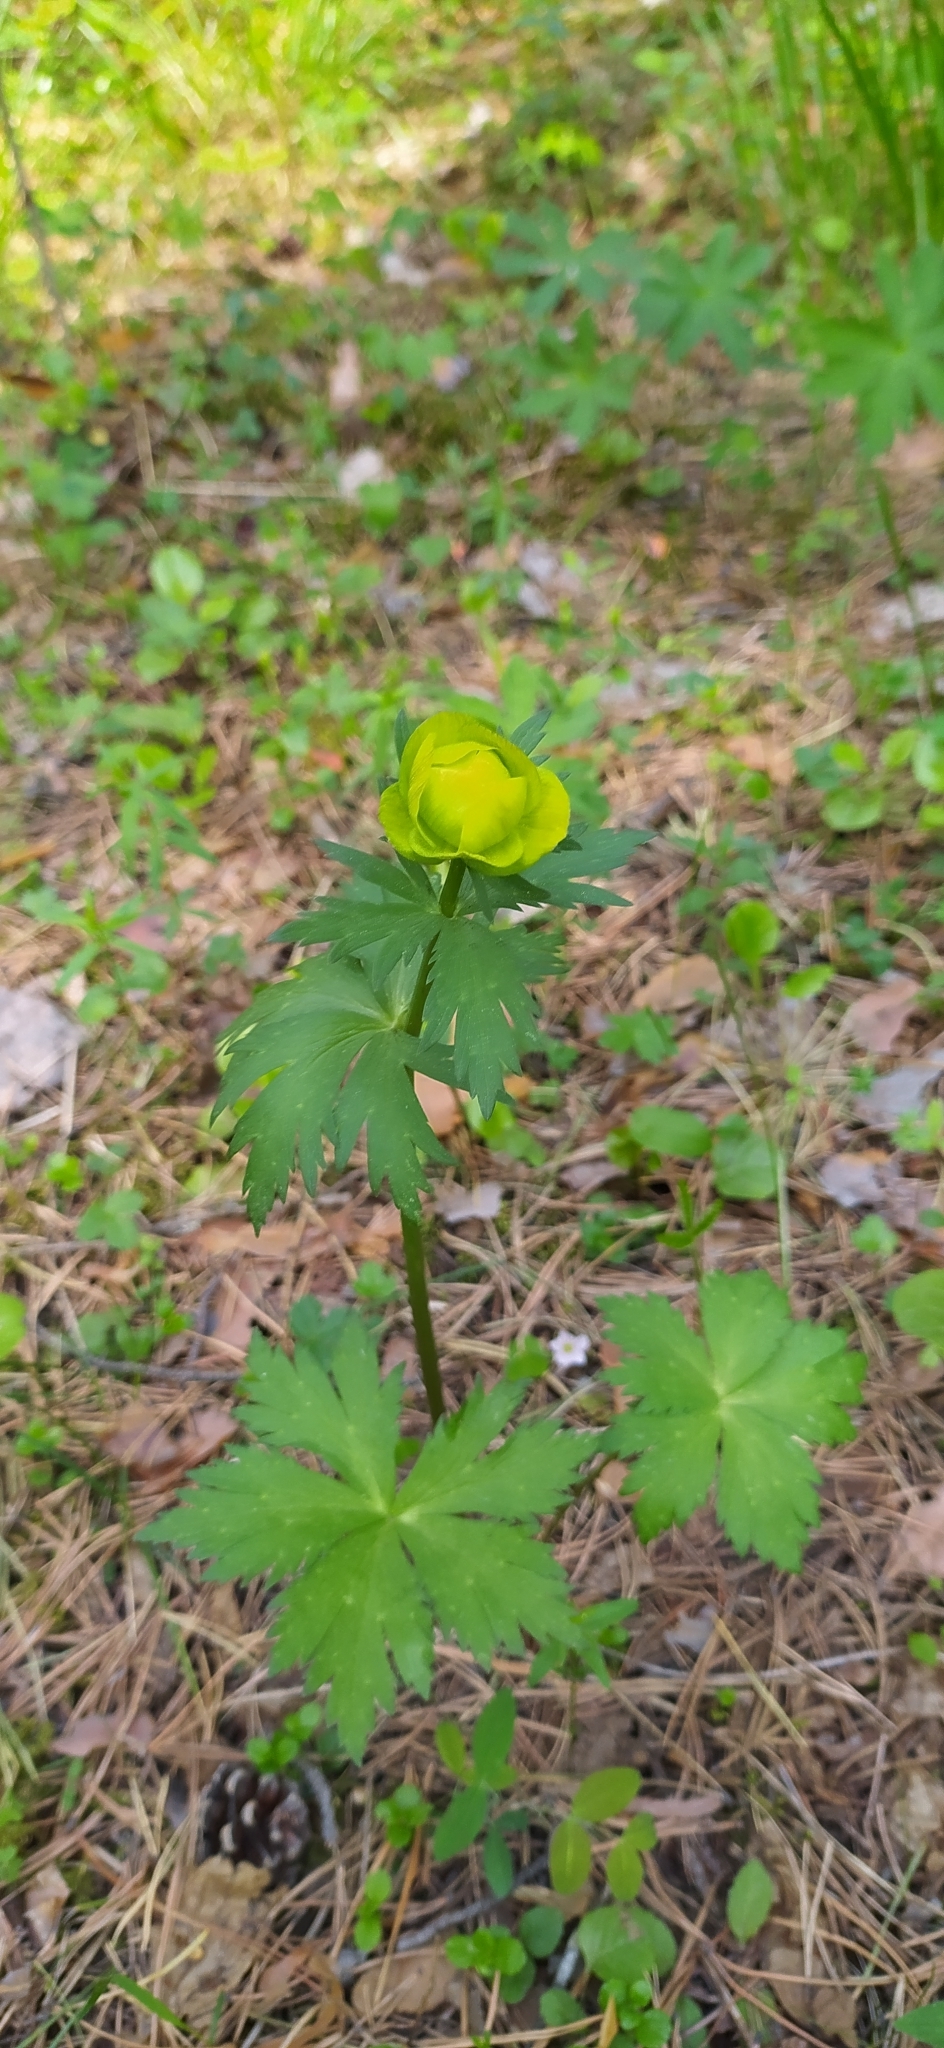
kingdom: Plantae
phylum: Tracheophyta
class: Magnoliopsida
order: Ranunculales
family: Ranunculaceae
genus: Trollius
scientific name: Trollius europaeus
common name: European globeflower
